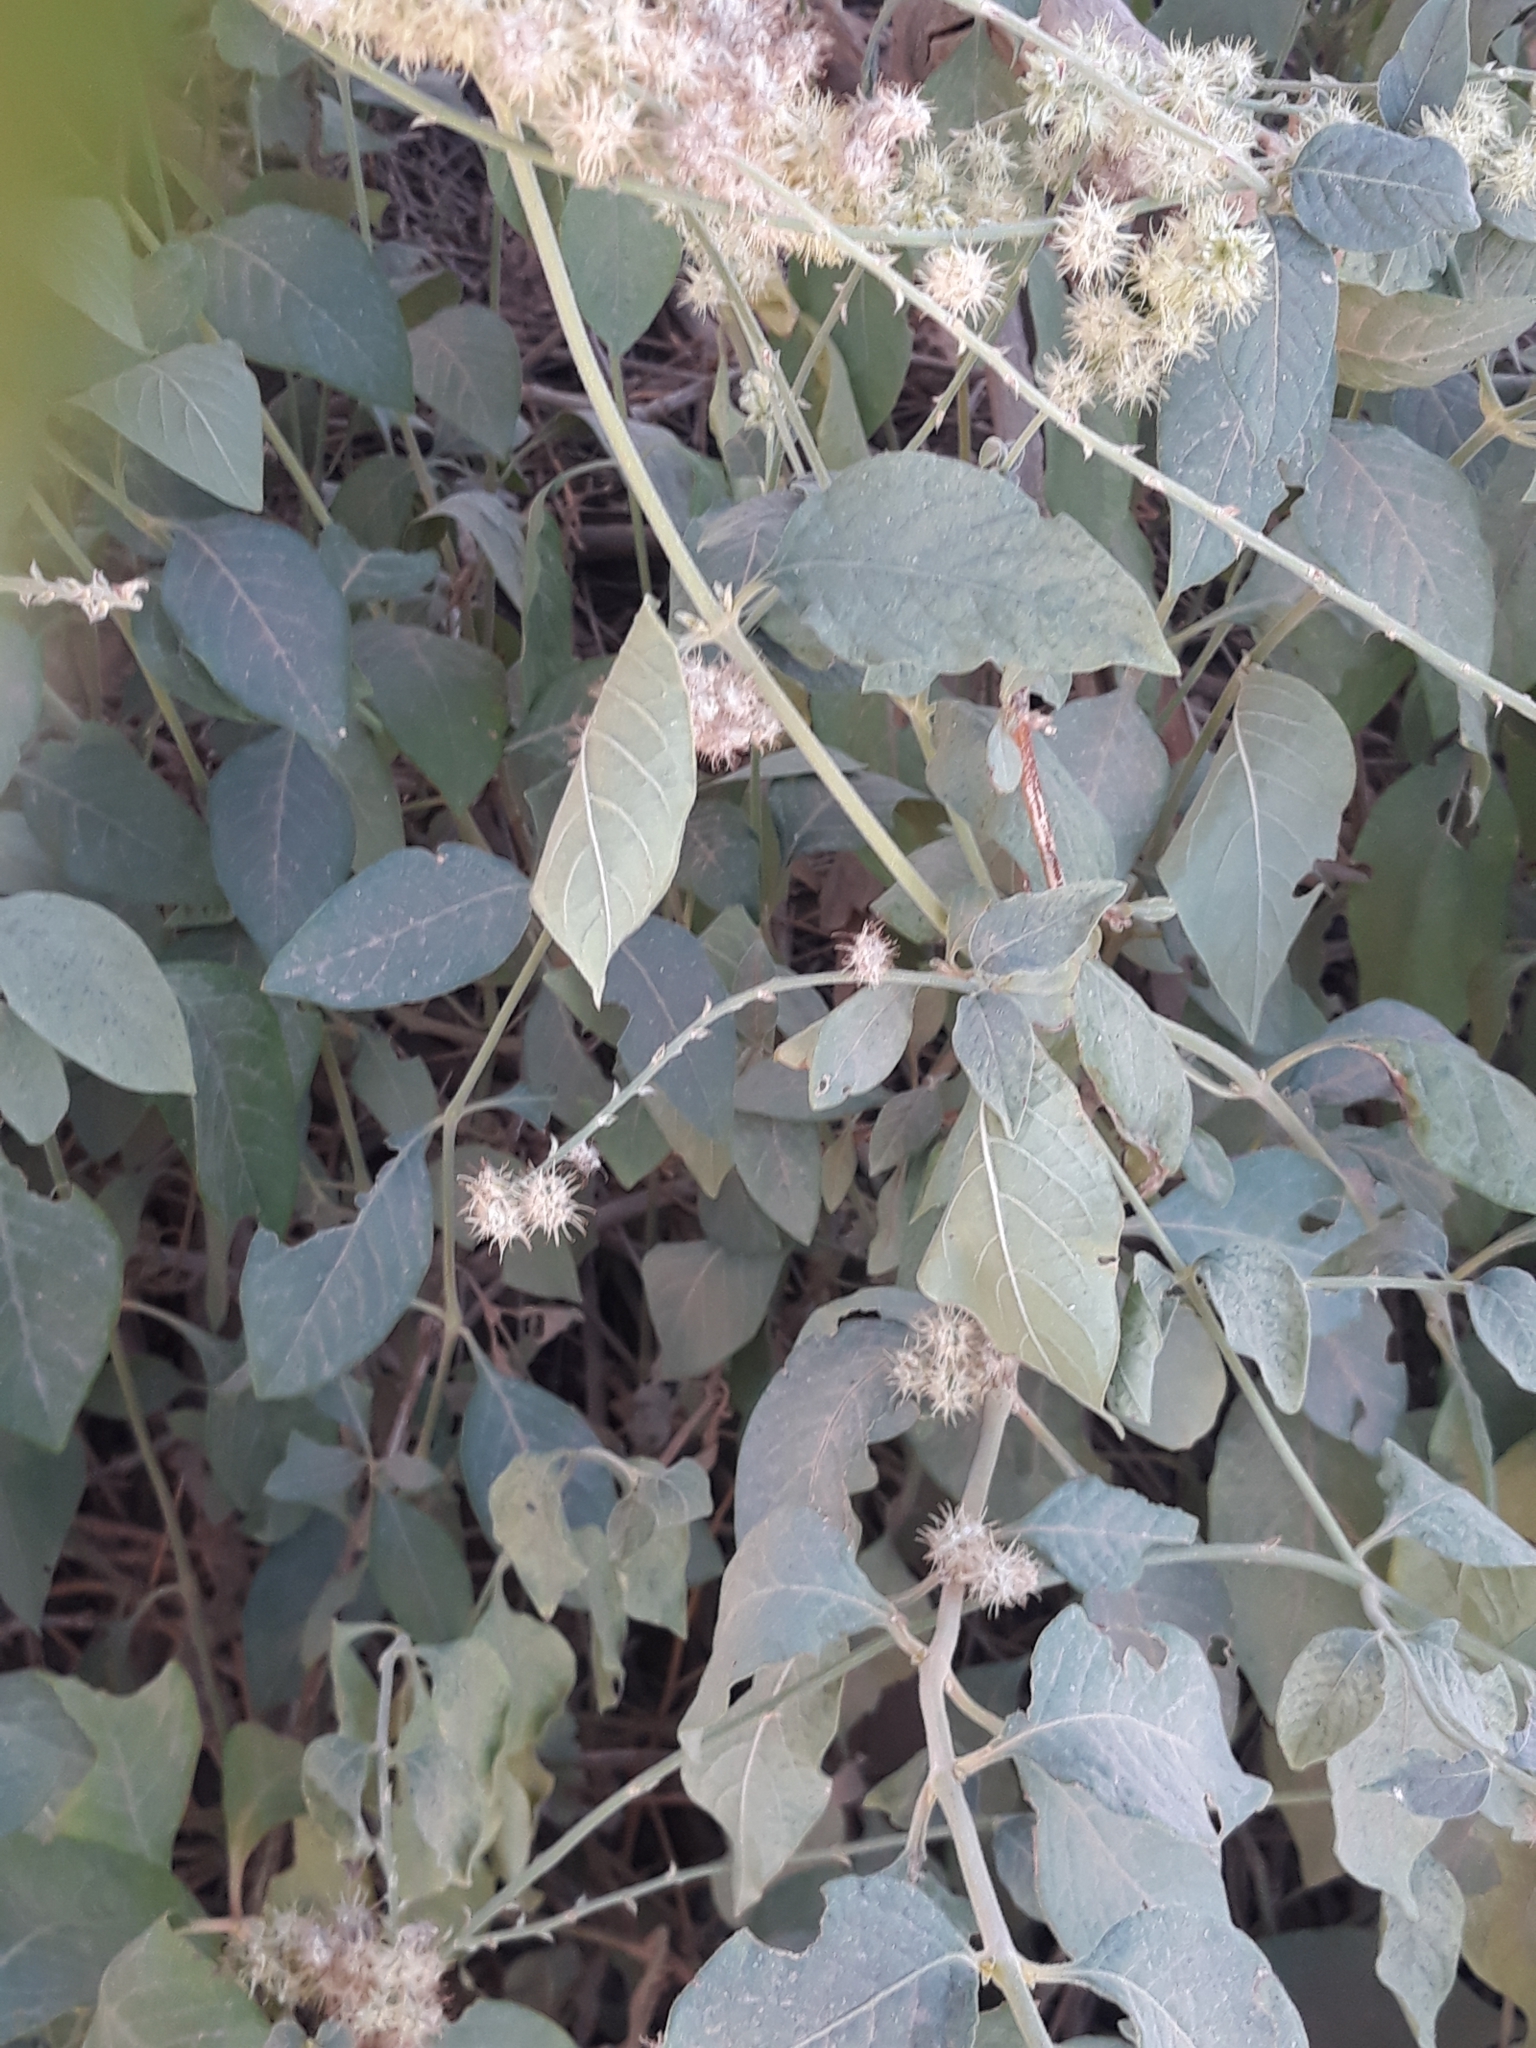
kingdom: Plantae
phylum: Tracheophyta
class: Magnoliopsida
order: Caryophyllales
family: Amaranthaceae
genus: Pupalia
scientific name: Pupalia lappacea
